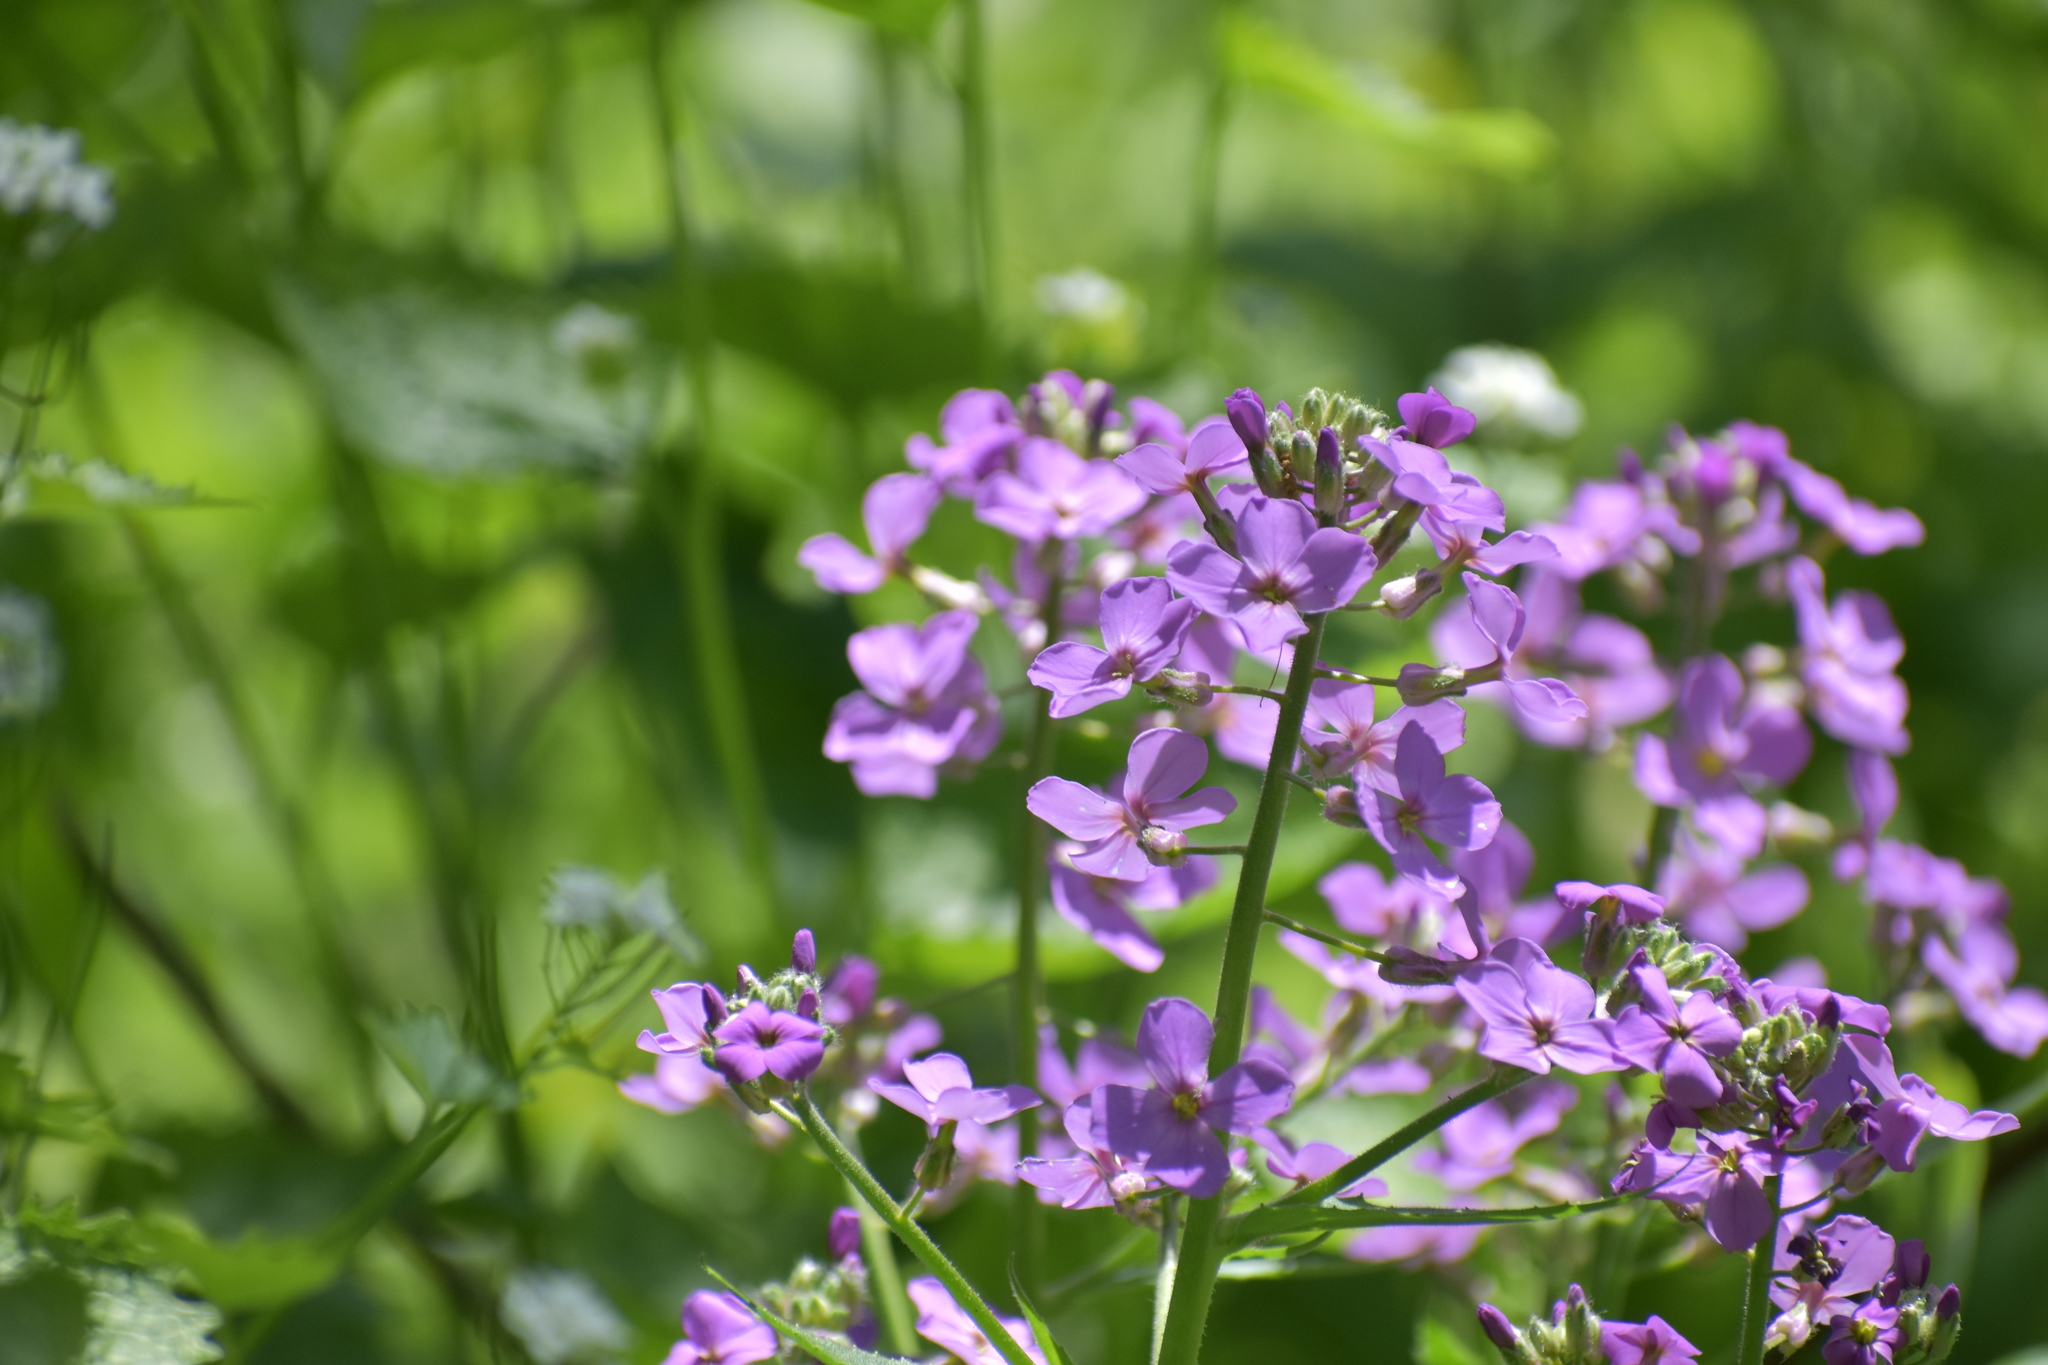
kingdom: Plantae
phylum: Tracheophyta
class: Magnoliopsida
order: Brassicales
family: Brassicaceae
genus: Hesperis
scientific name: Hesperis matronalis
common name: Dame's-violet
